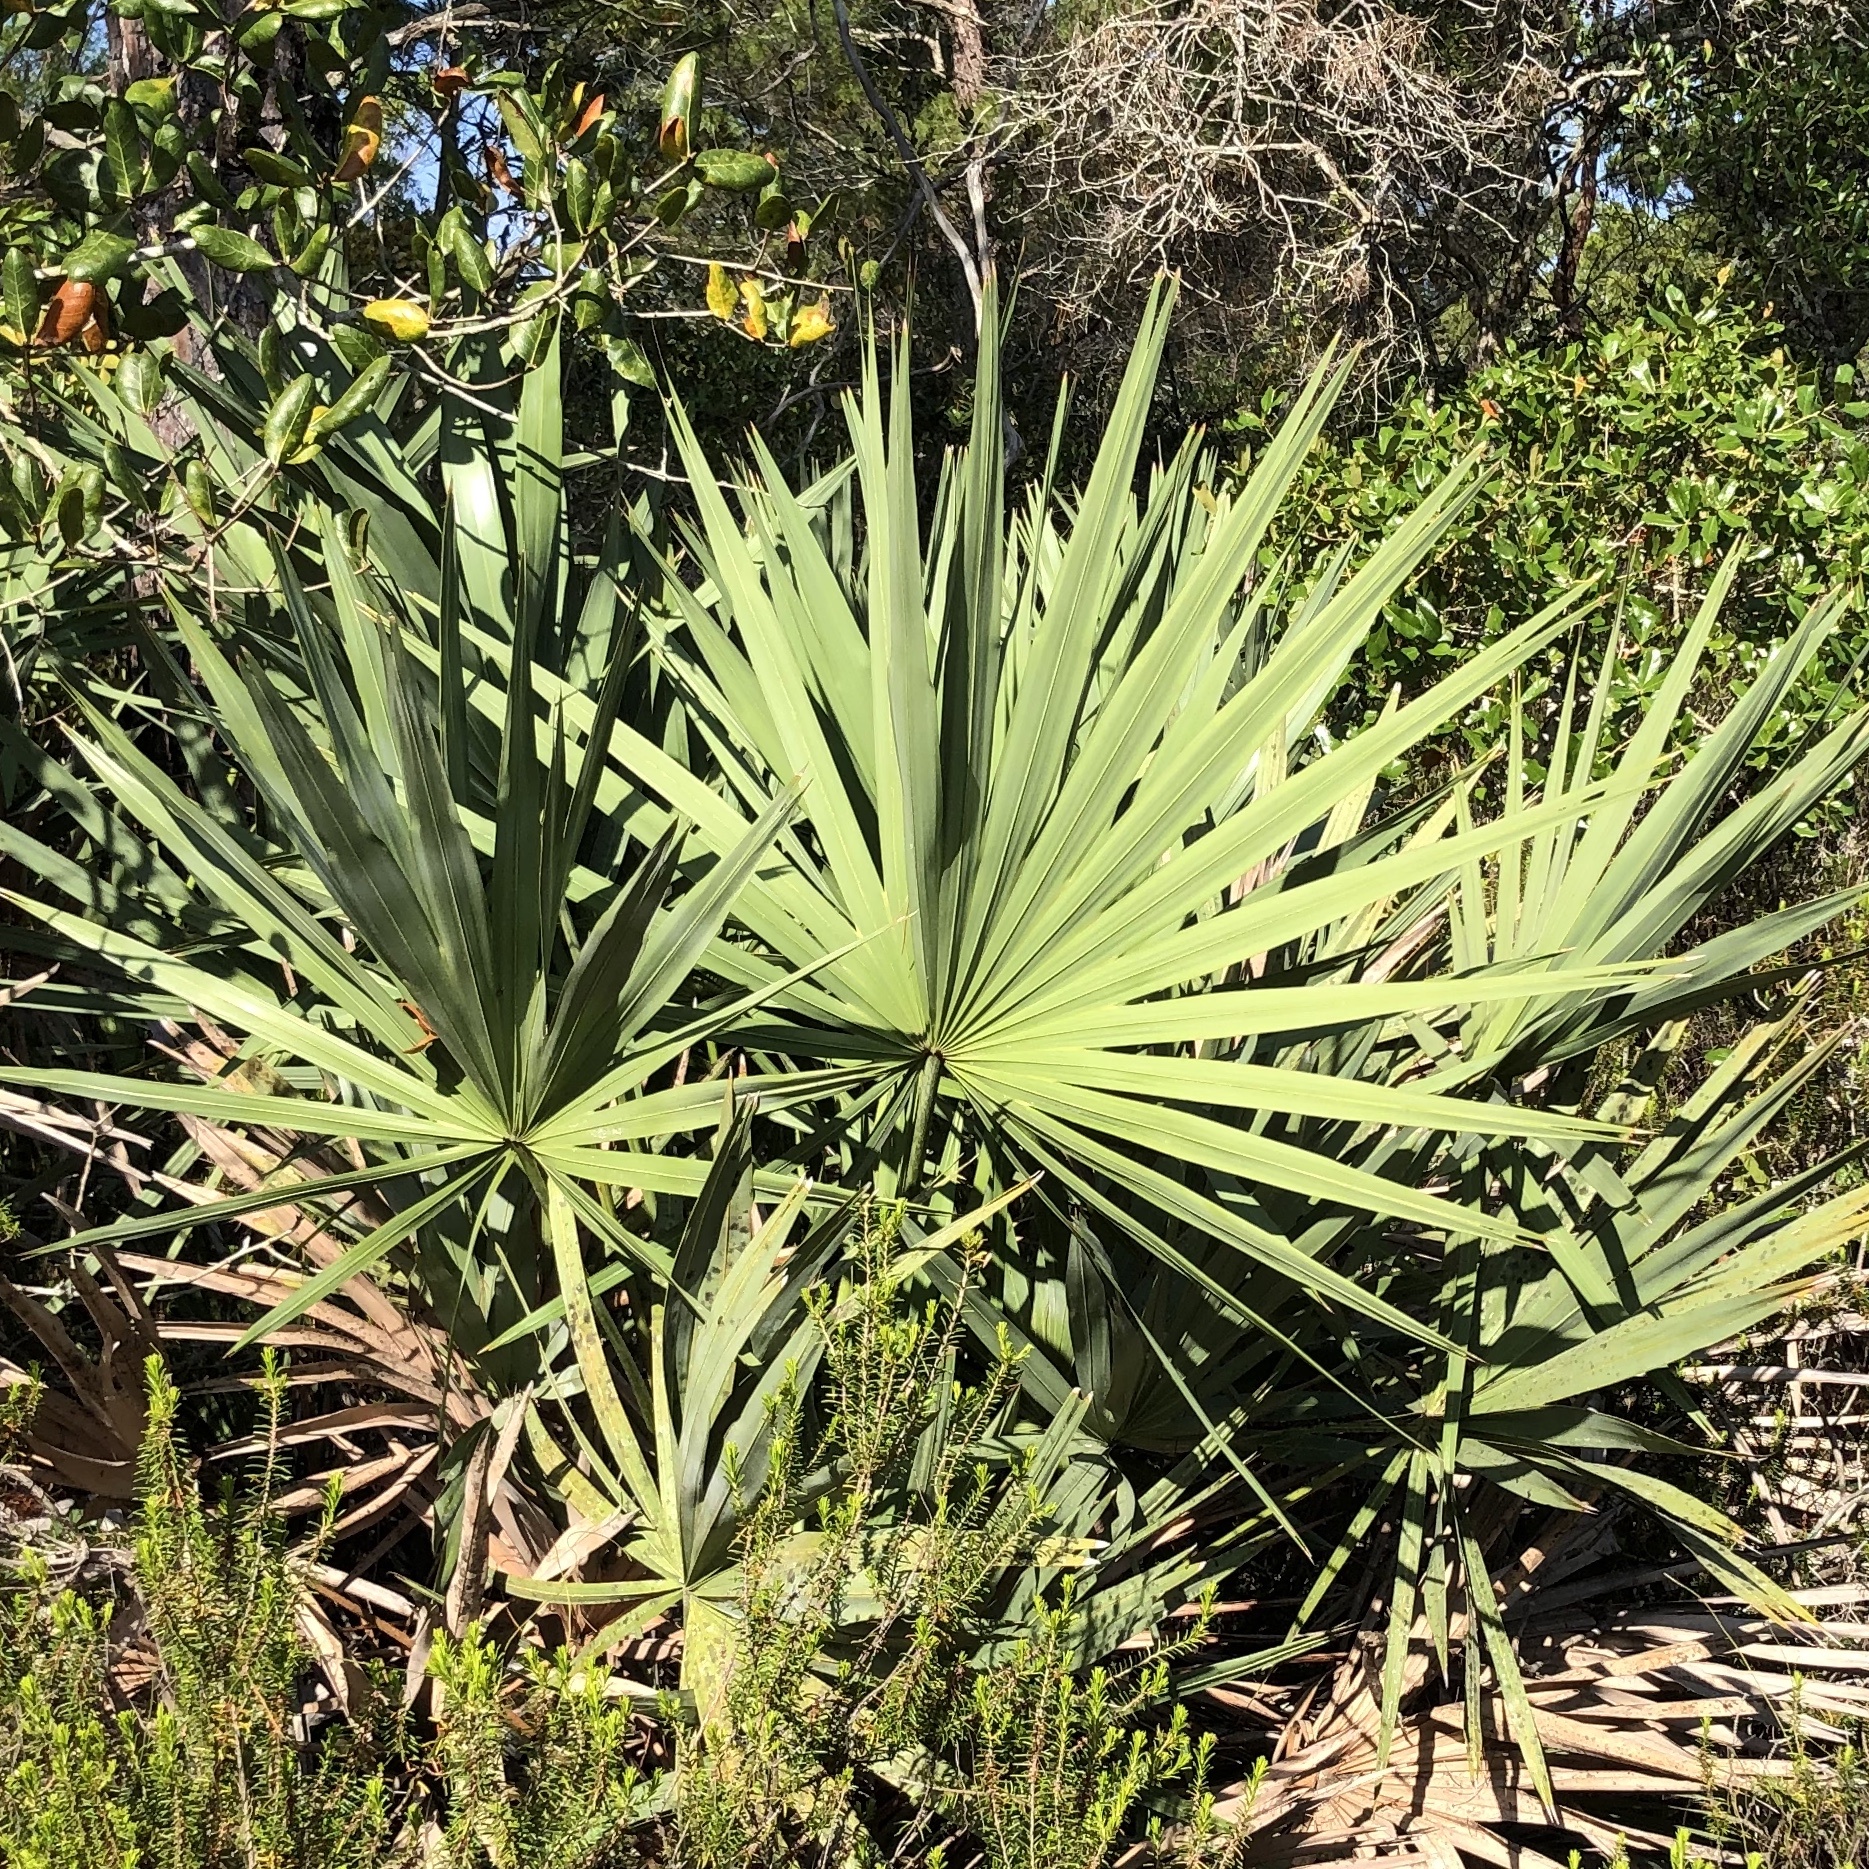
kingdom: Plantae
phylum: Tracheophyta
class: Liliopsida
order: Arecales
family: Arecaceae
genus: Serenoa
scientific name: Serenoa repens
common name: Saw-palmetto
